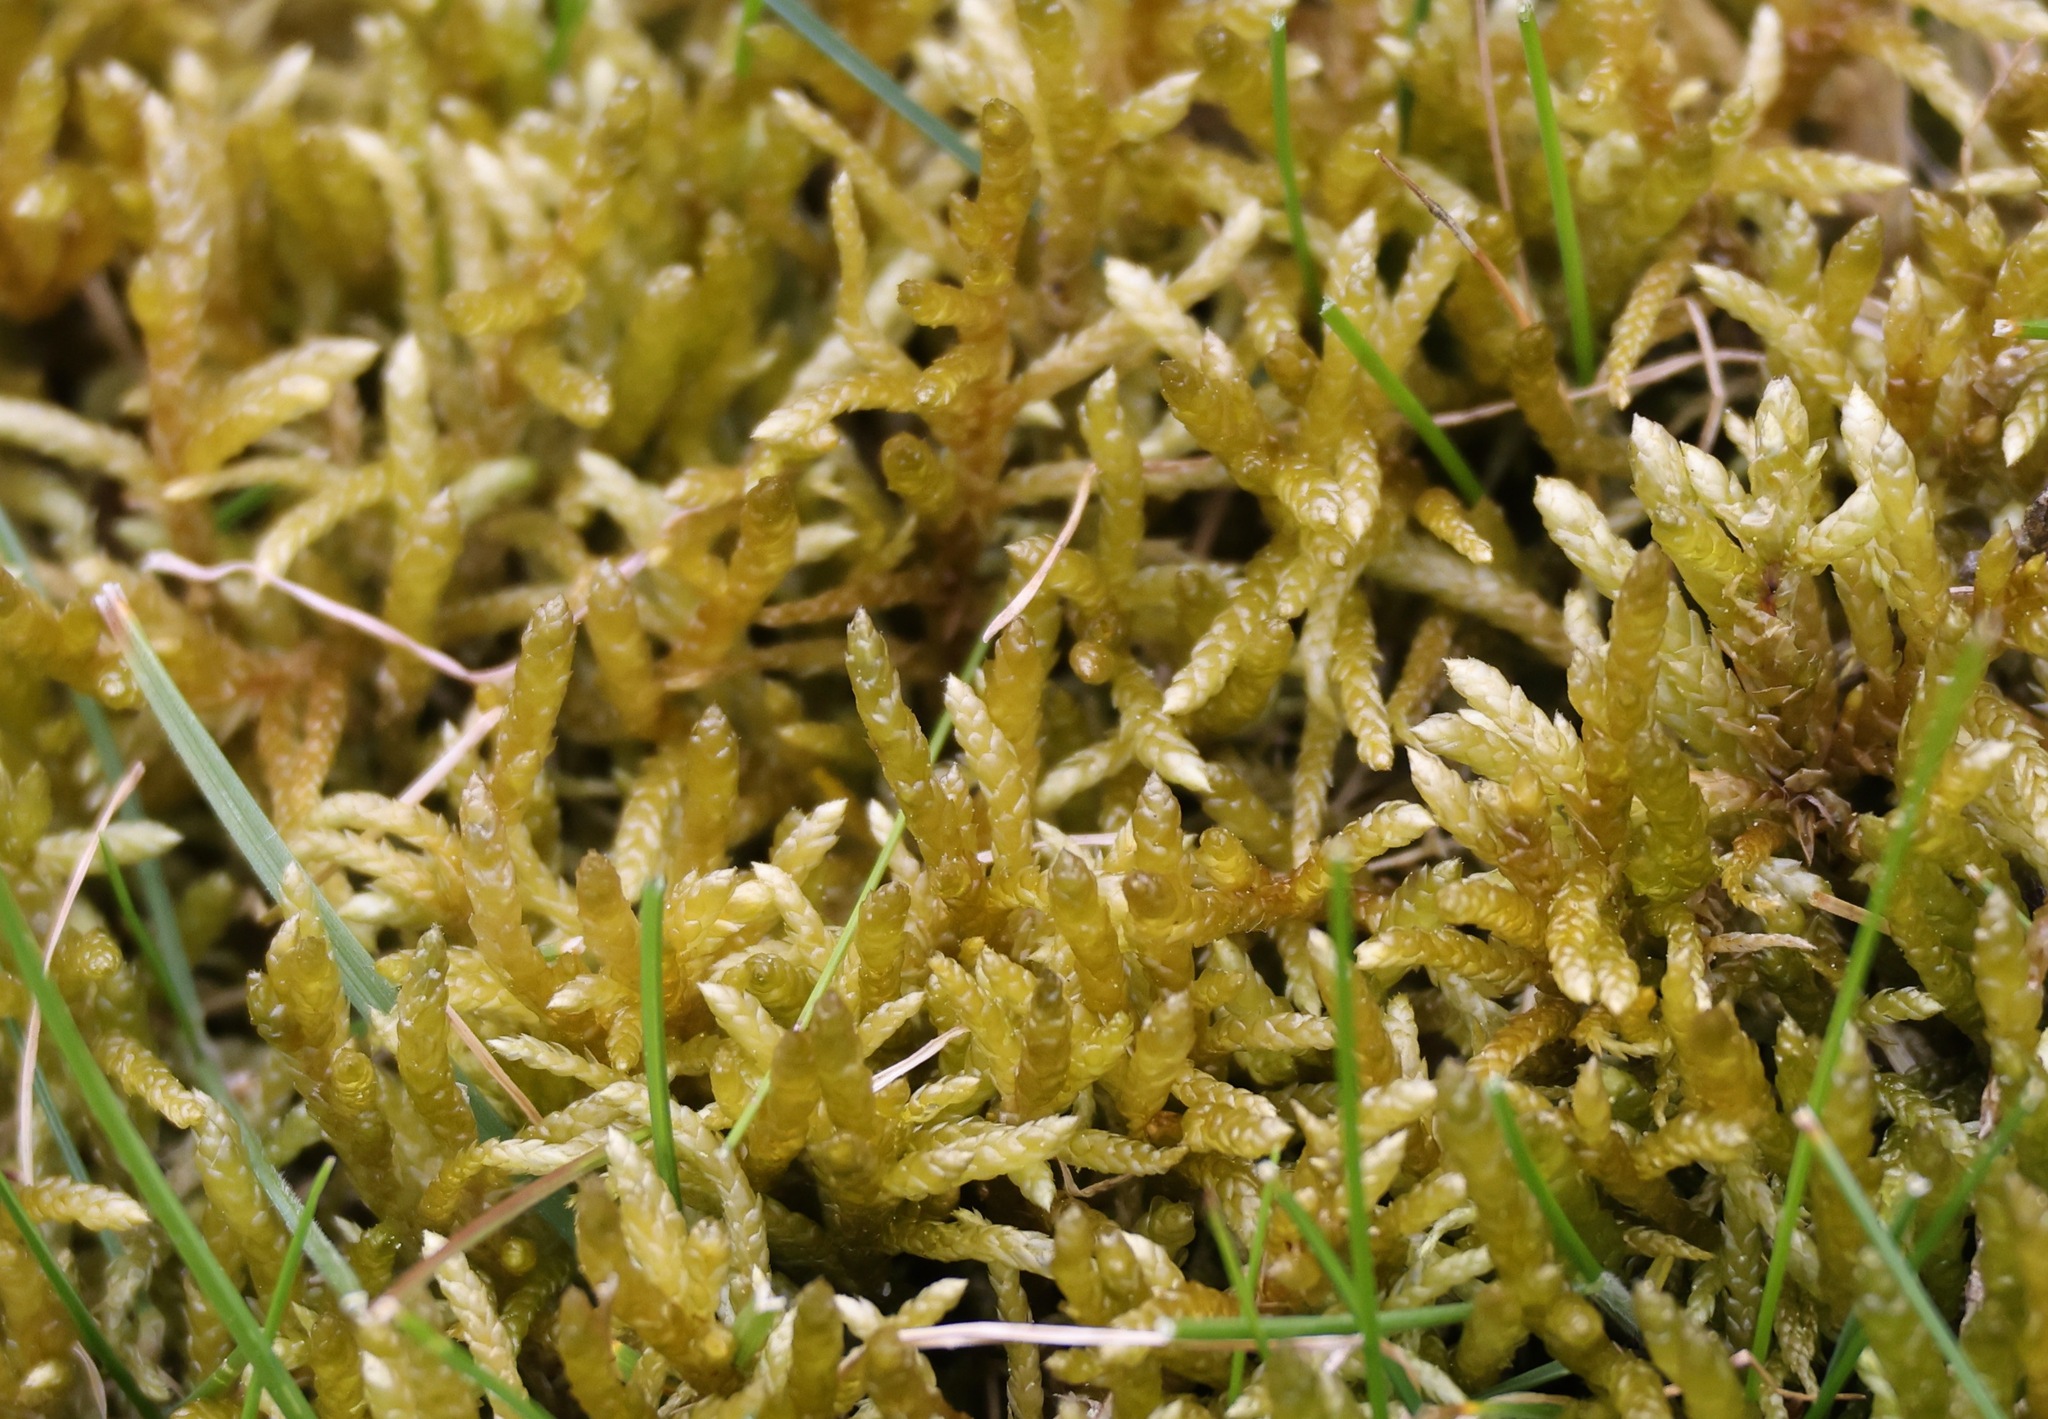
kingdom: Plantae
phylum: Bryophyta
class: Bryopsida
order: Hypnales
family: Brachytheciaceae
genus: Pseudoscleropodium
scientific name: Pseudoscleropodium purum
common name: Neat feather-moss
